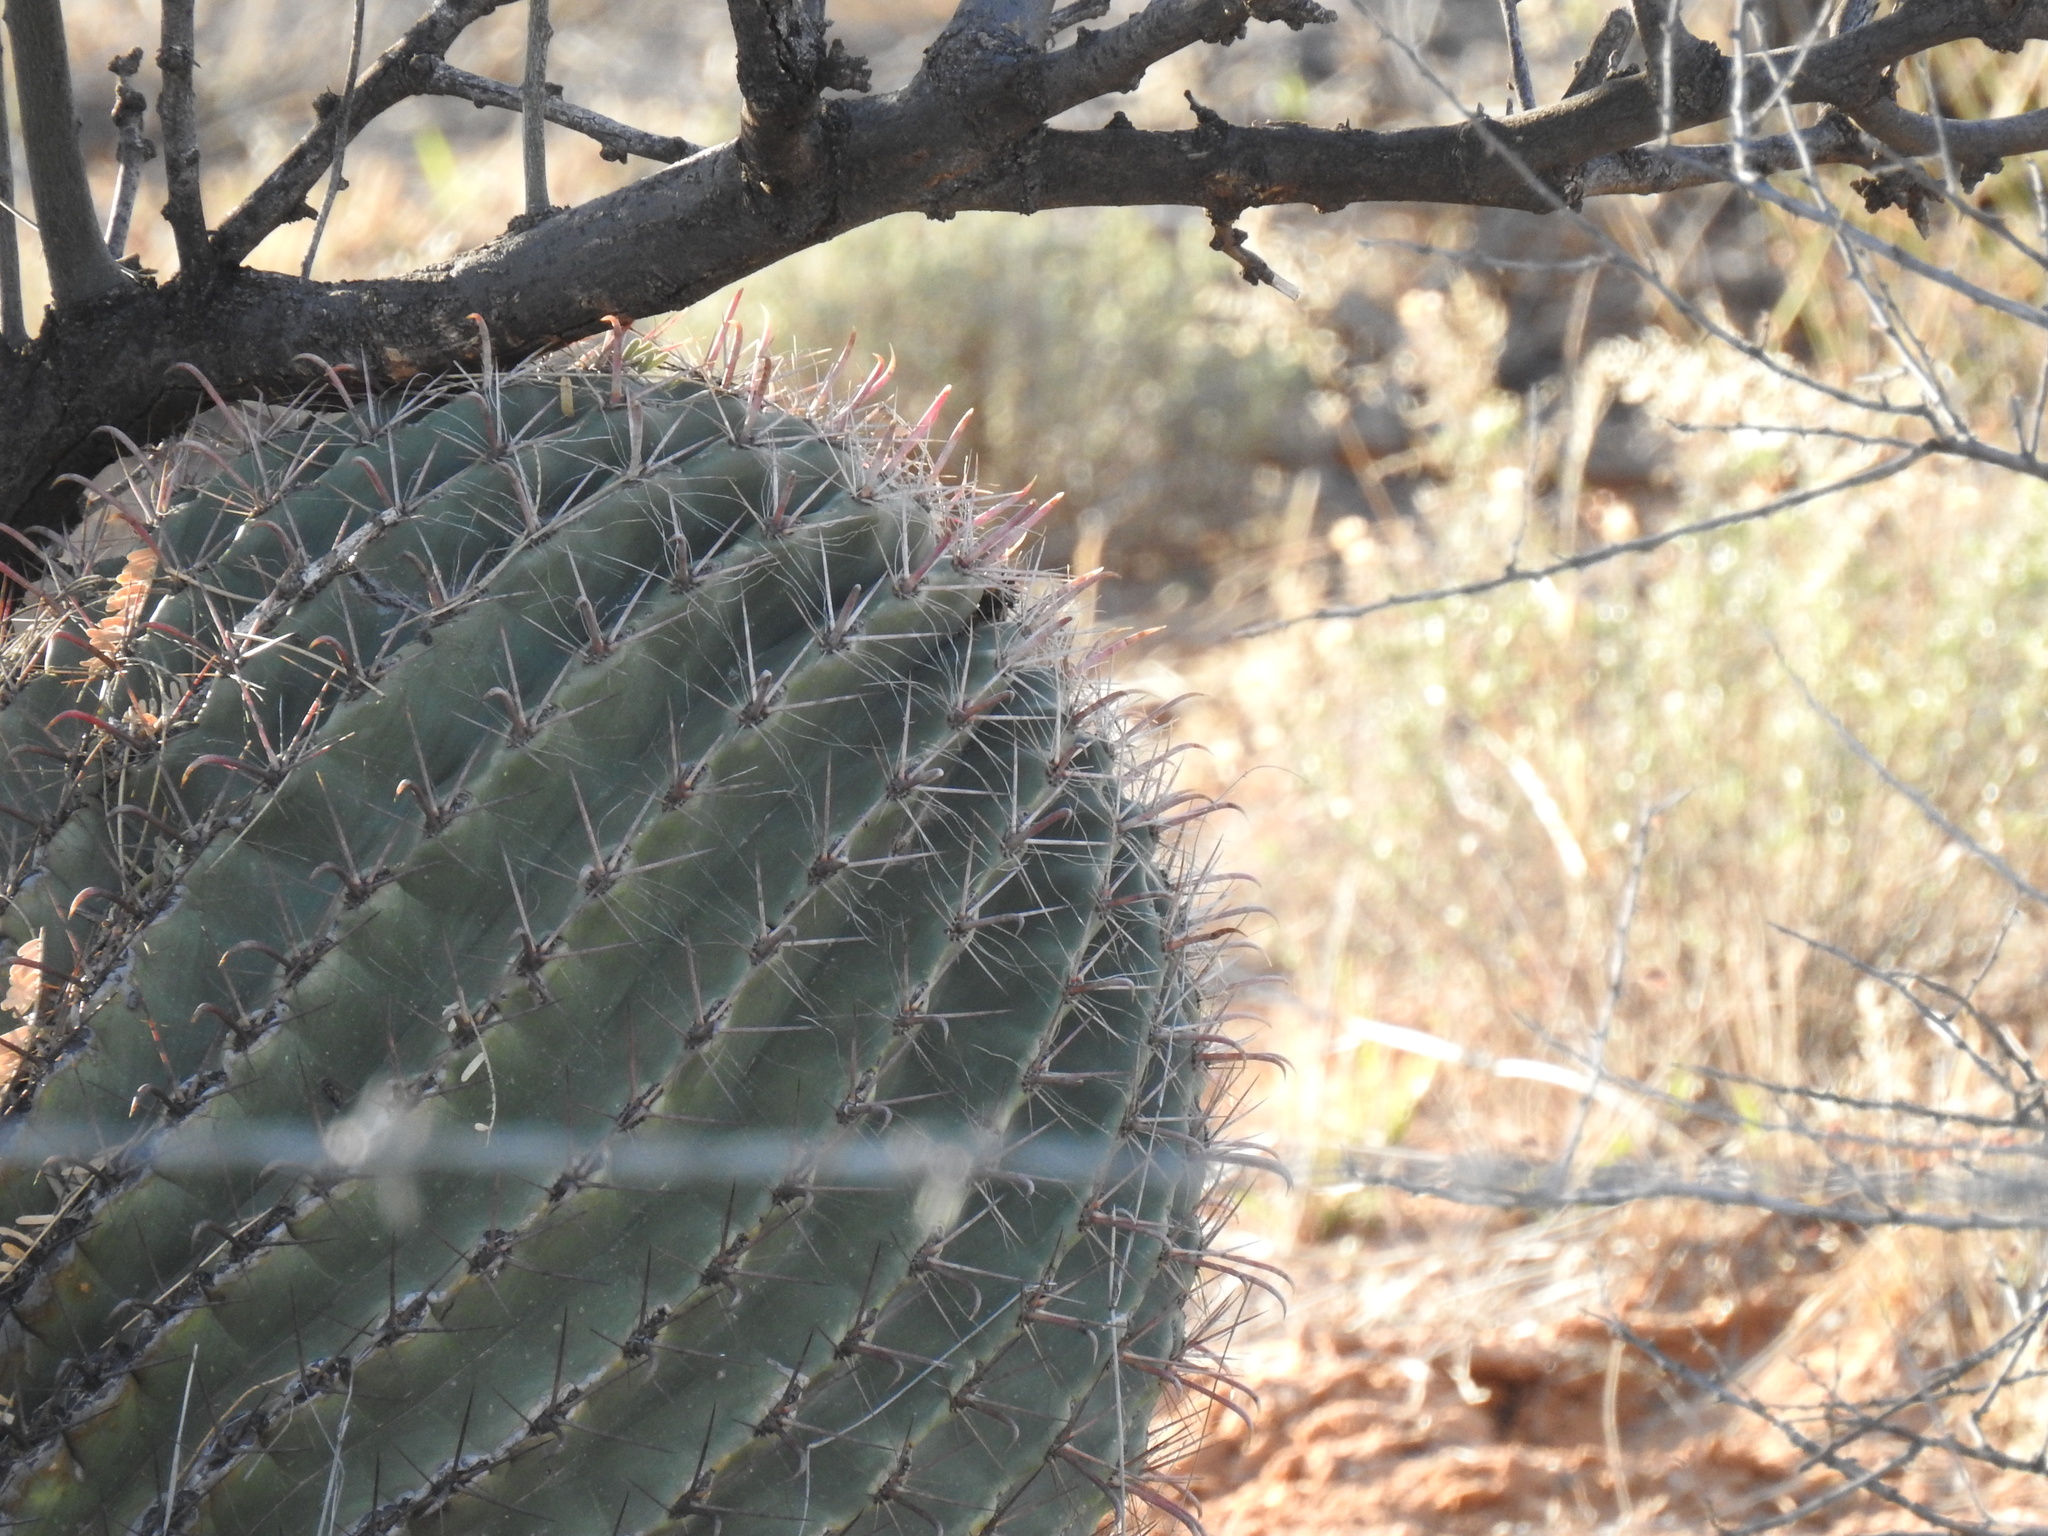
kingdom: Plantae
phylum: Tracheophyta
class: Magnoliopsida
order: Caryophyllales
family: Cactaceae
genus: Ferocactus
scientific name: Ferocactus wislizeni
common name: Candy barrel cactus
